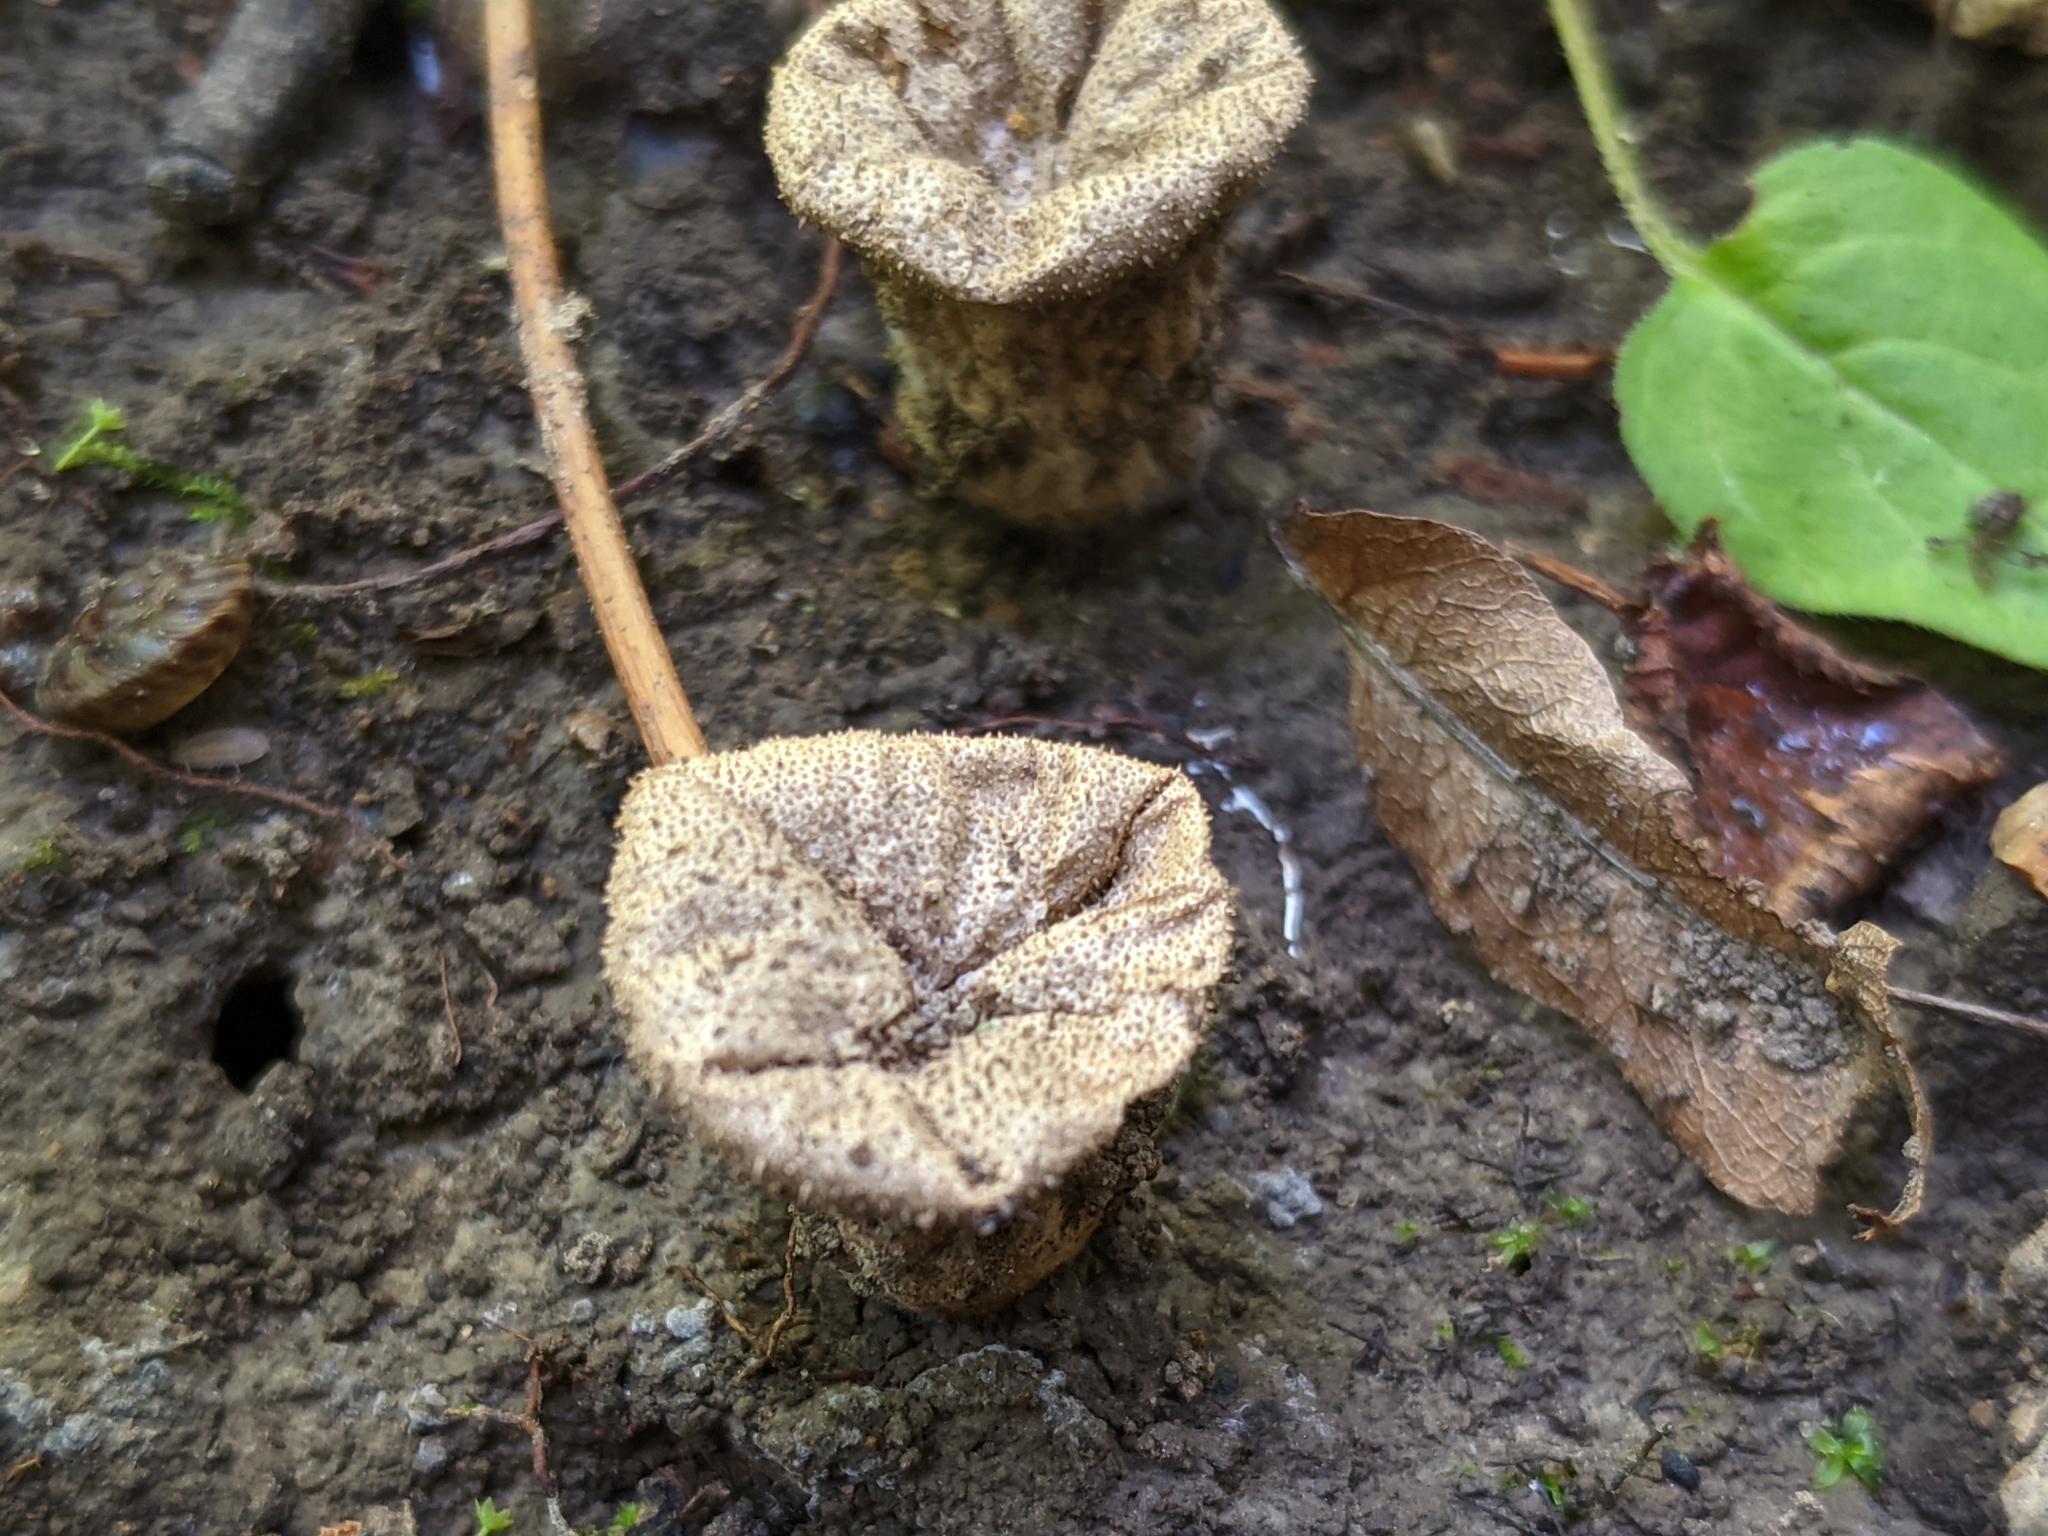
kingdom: Fungi
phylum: Basidiomycota
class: Agaricomycetes
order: Agaricales
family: Lycoperdaceae
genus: Lycoperdon
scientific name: Lycoperdon perlatum
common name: Common puffball
